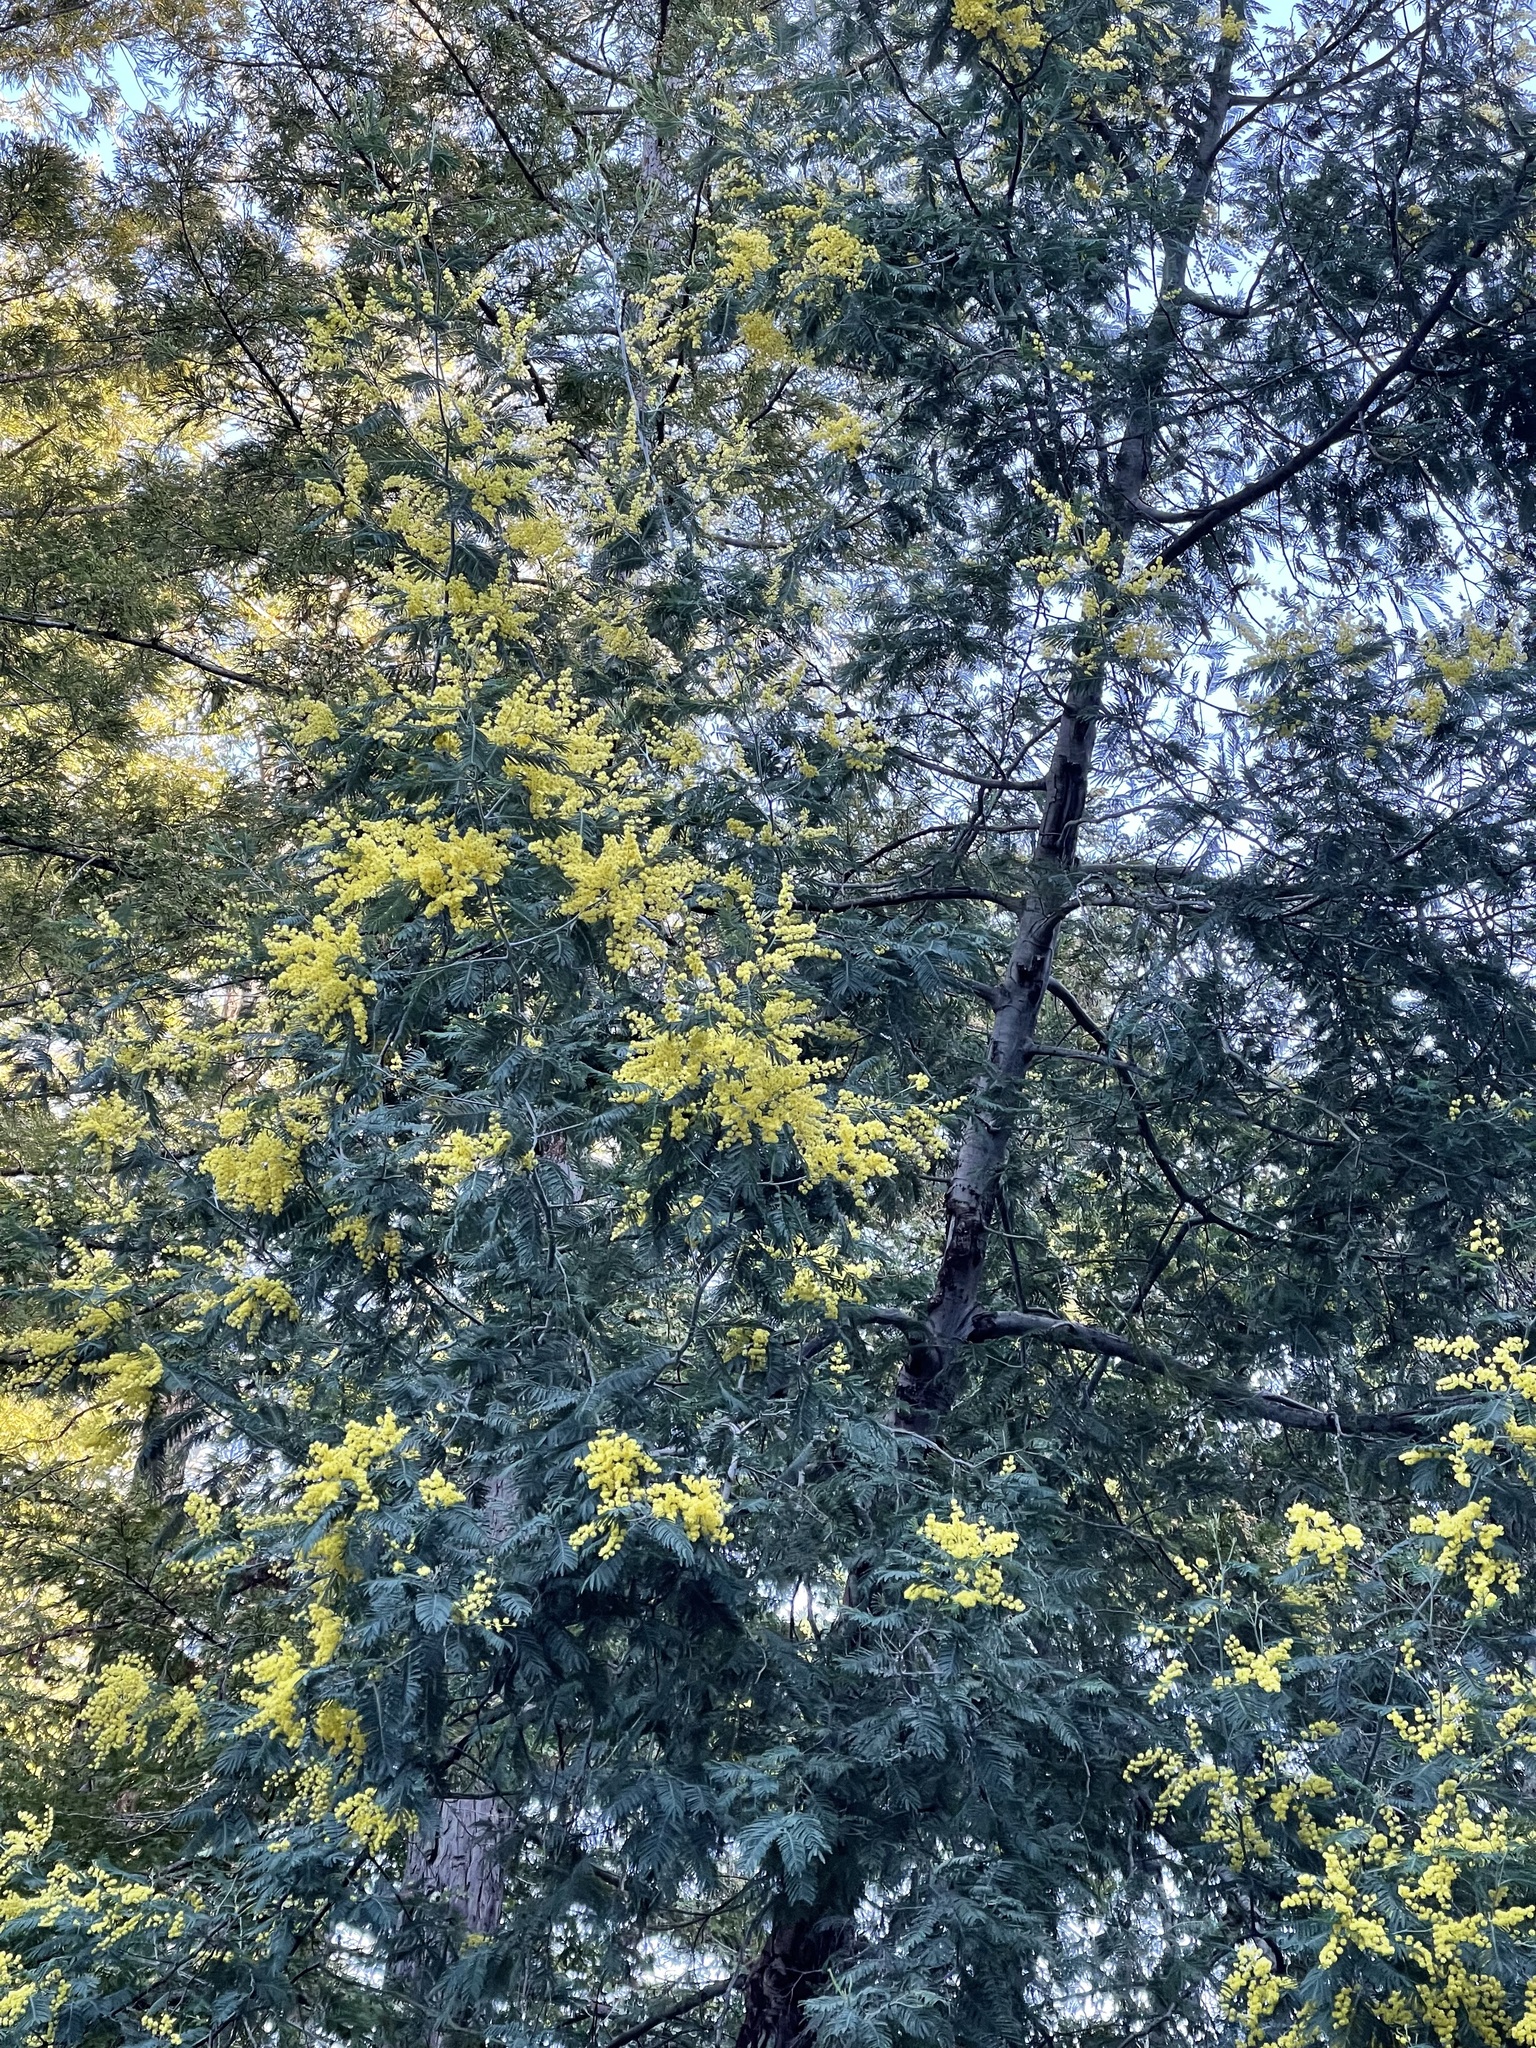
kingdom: Plantae
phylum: Tracheophyta
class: Magnoliopsida
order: Fabales
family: Fabaceae
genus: Acacia
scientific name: Acacia dealbata
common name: Silver wattle
